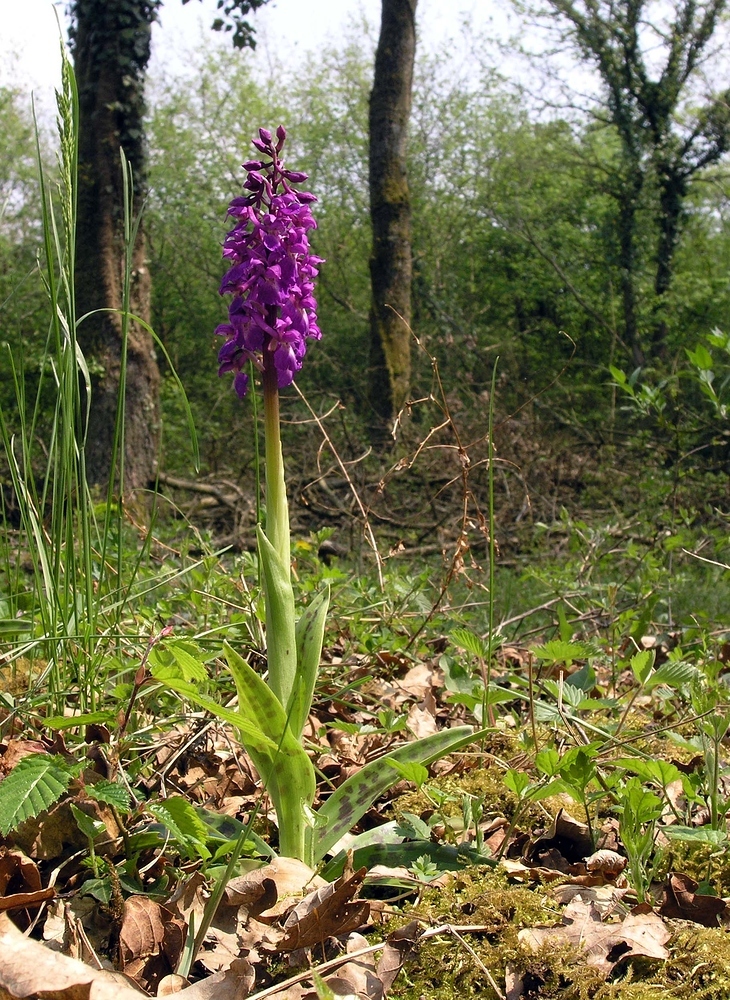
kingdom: Plantae
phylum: Tracheophyta
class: Liliopsida
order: Asparagales
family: Orchidaceae
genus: Orchis
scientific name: Orchis mascula
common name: Early-purple orchid
